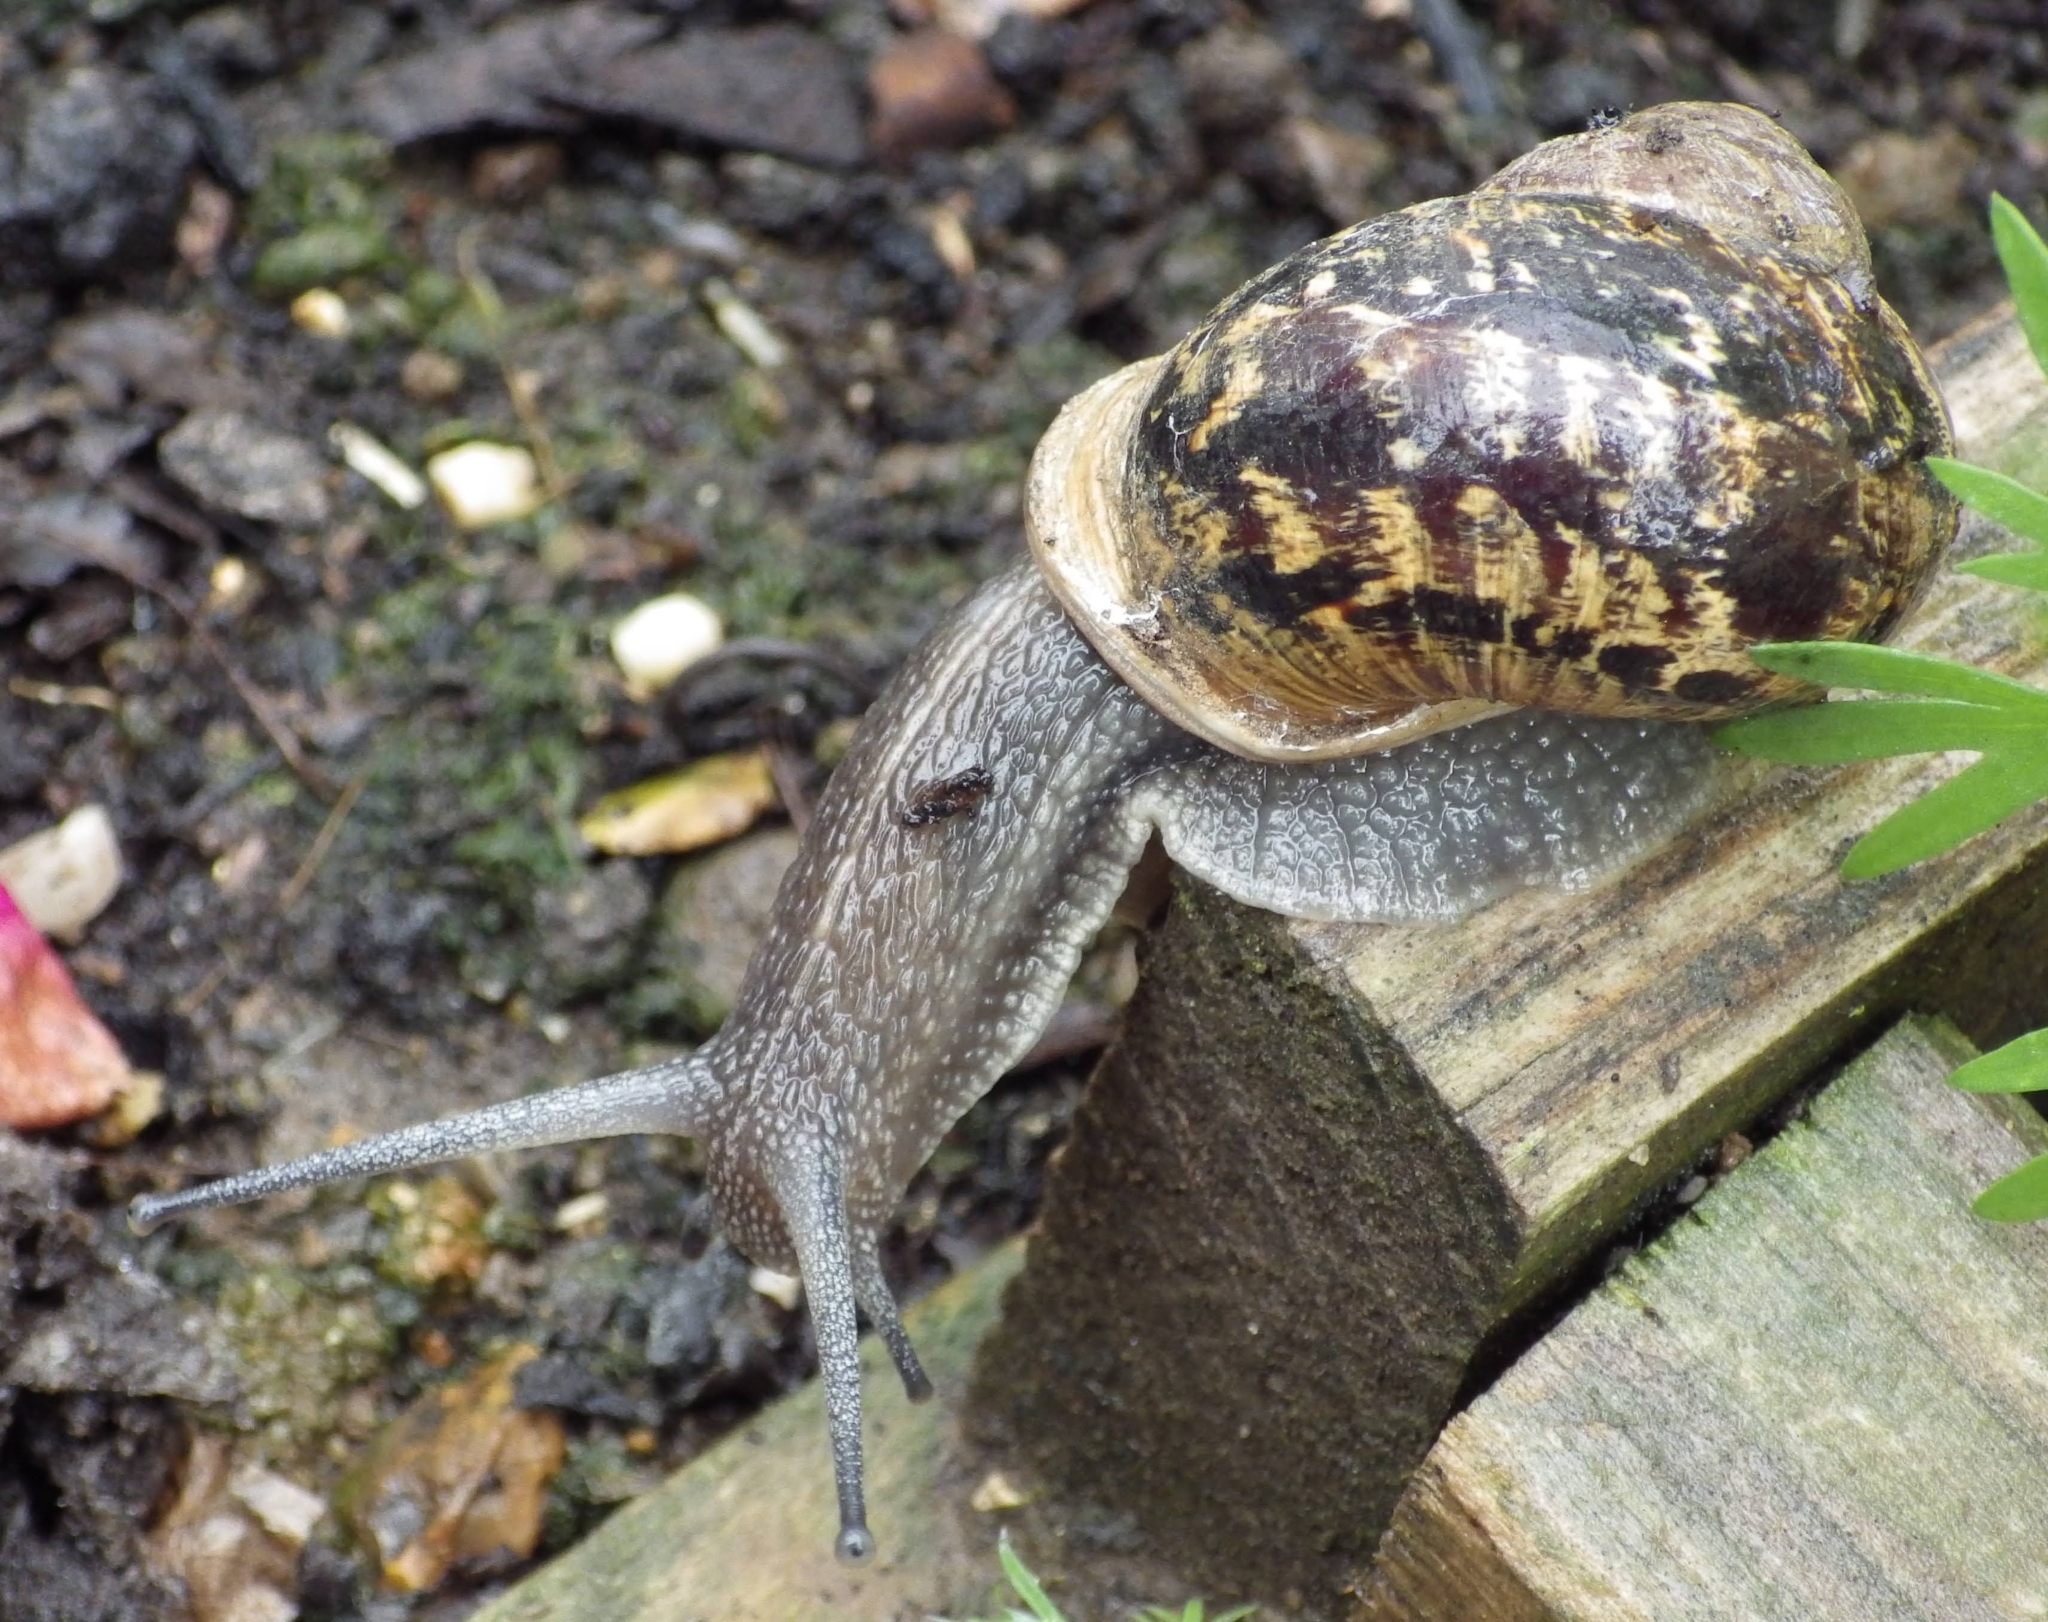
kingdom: Animalia
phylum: Mollusca
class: Gastropoda
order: Stylommatophora
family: Helicidae
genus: Cornu
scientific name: Cornu aspersum
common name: Brown garden snail
